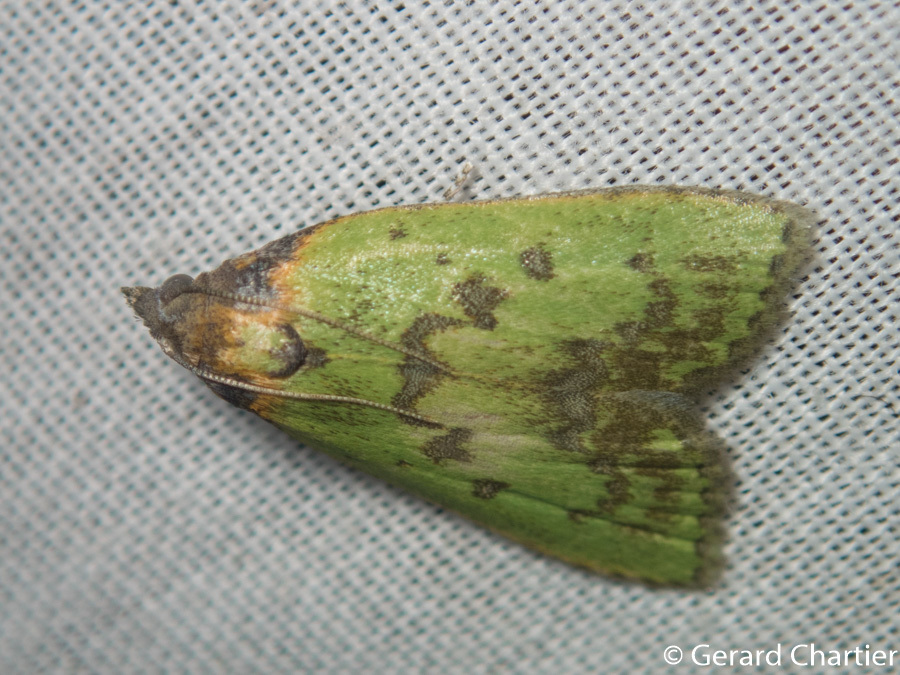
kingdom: Animalia
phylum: Arthropoda
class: Insecta
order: Lepidoptera
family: Pyralidae
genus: Doloessa
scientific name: Doloessa viridis
